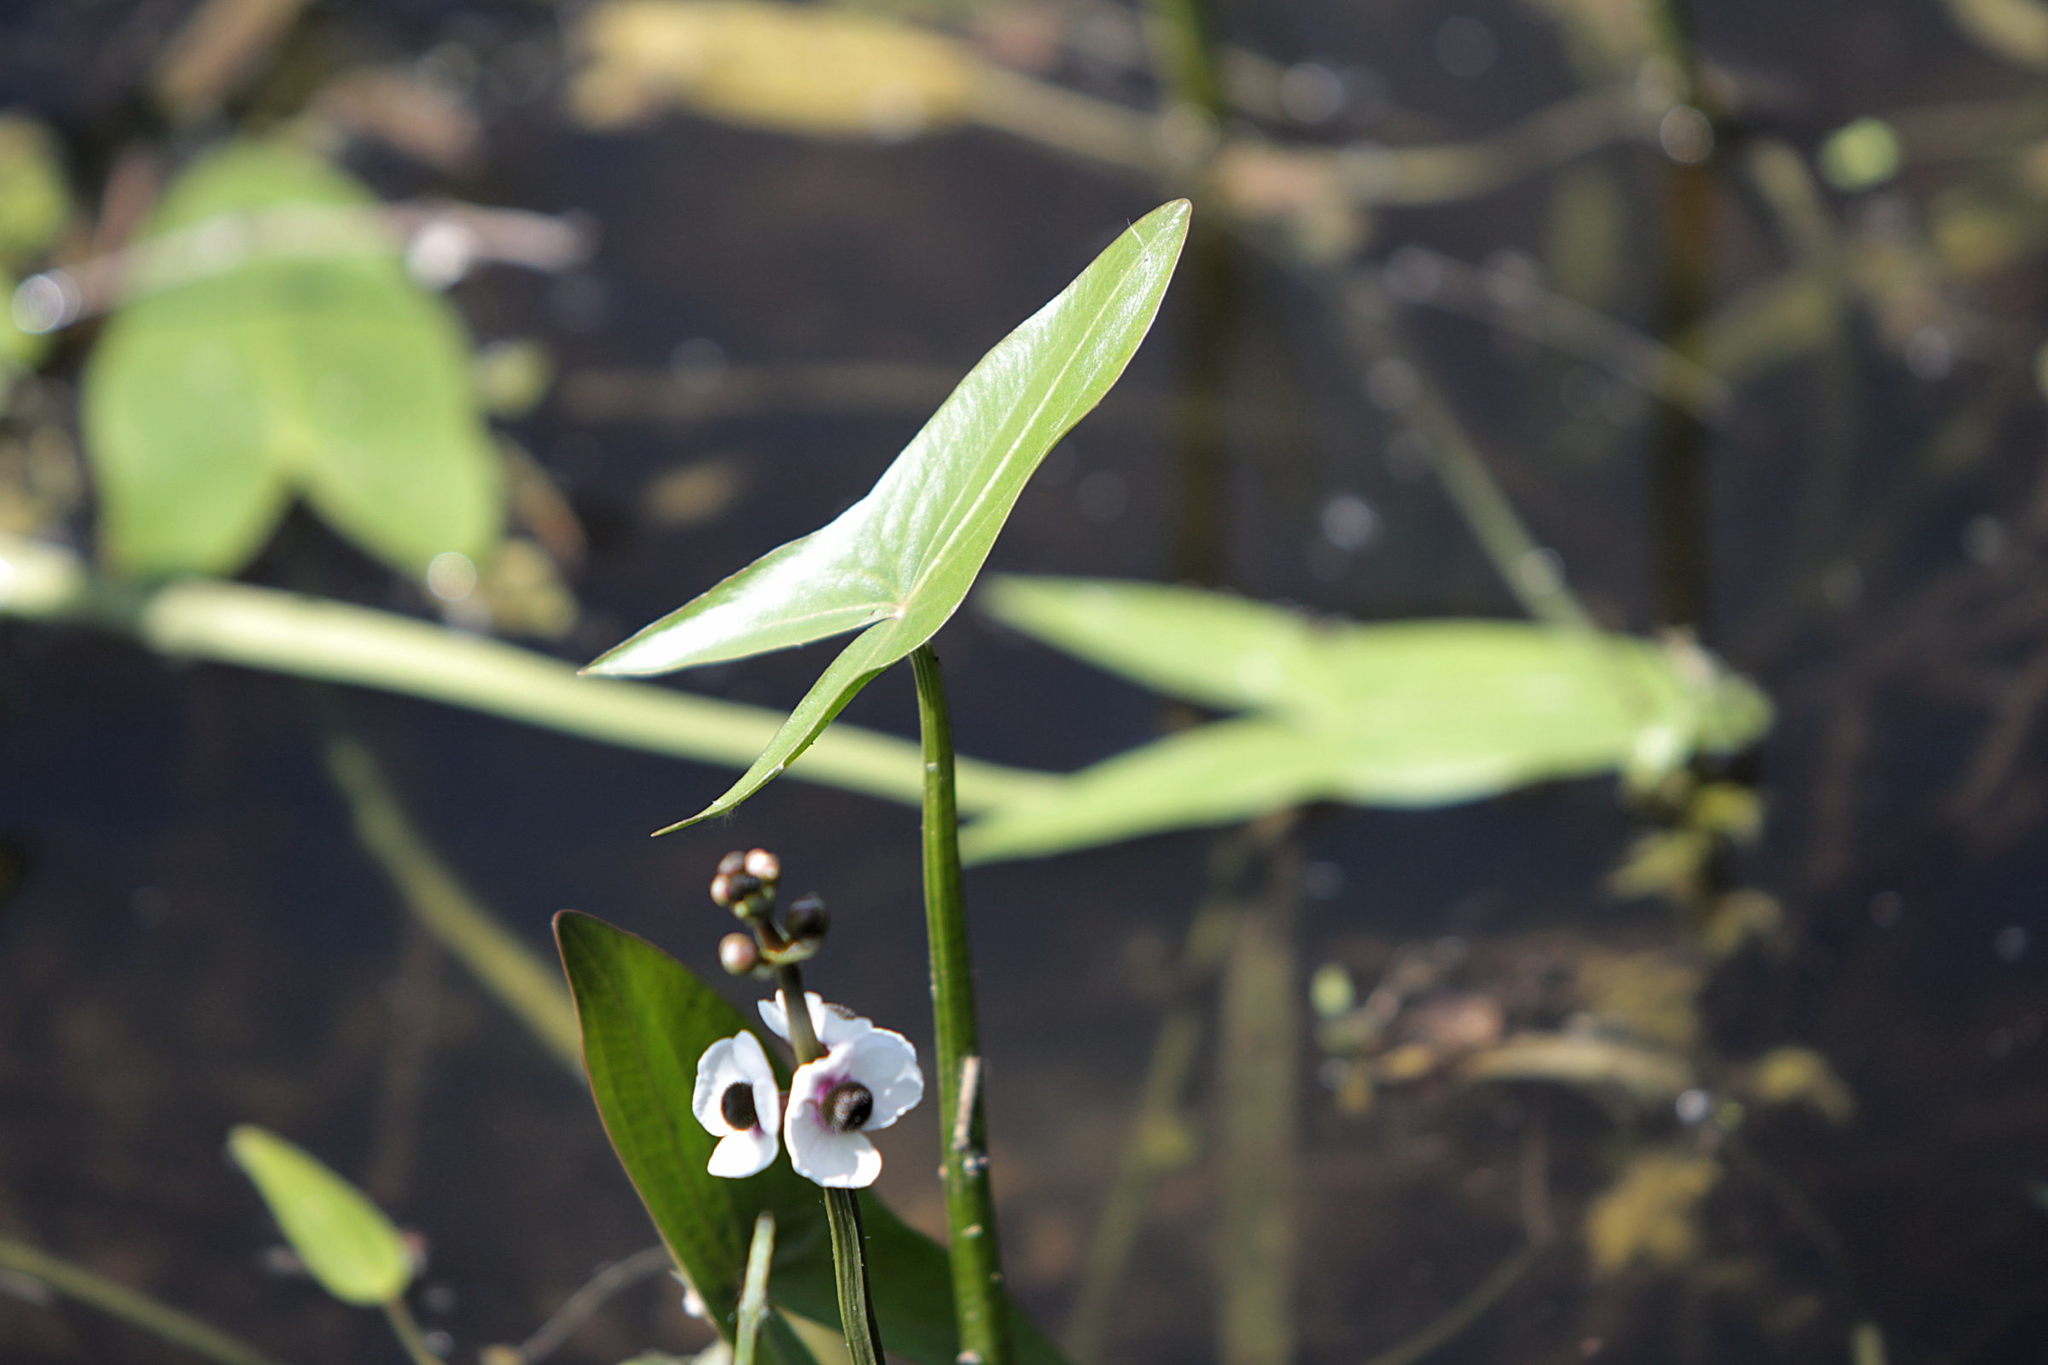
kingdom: Plantae
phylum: Tracheophyta
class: Liliopsida
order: Alismatales
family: Alismataceae
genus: Sagittaria
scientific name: Sagittaria sagittifolia
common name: Arrowhead
